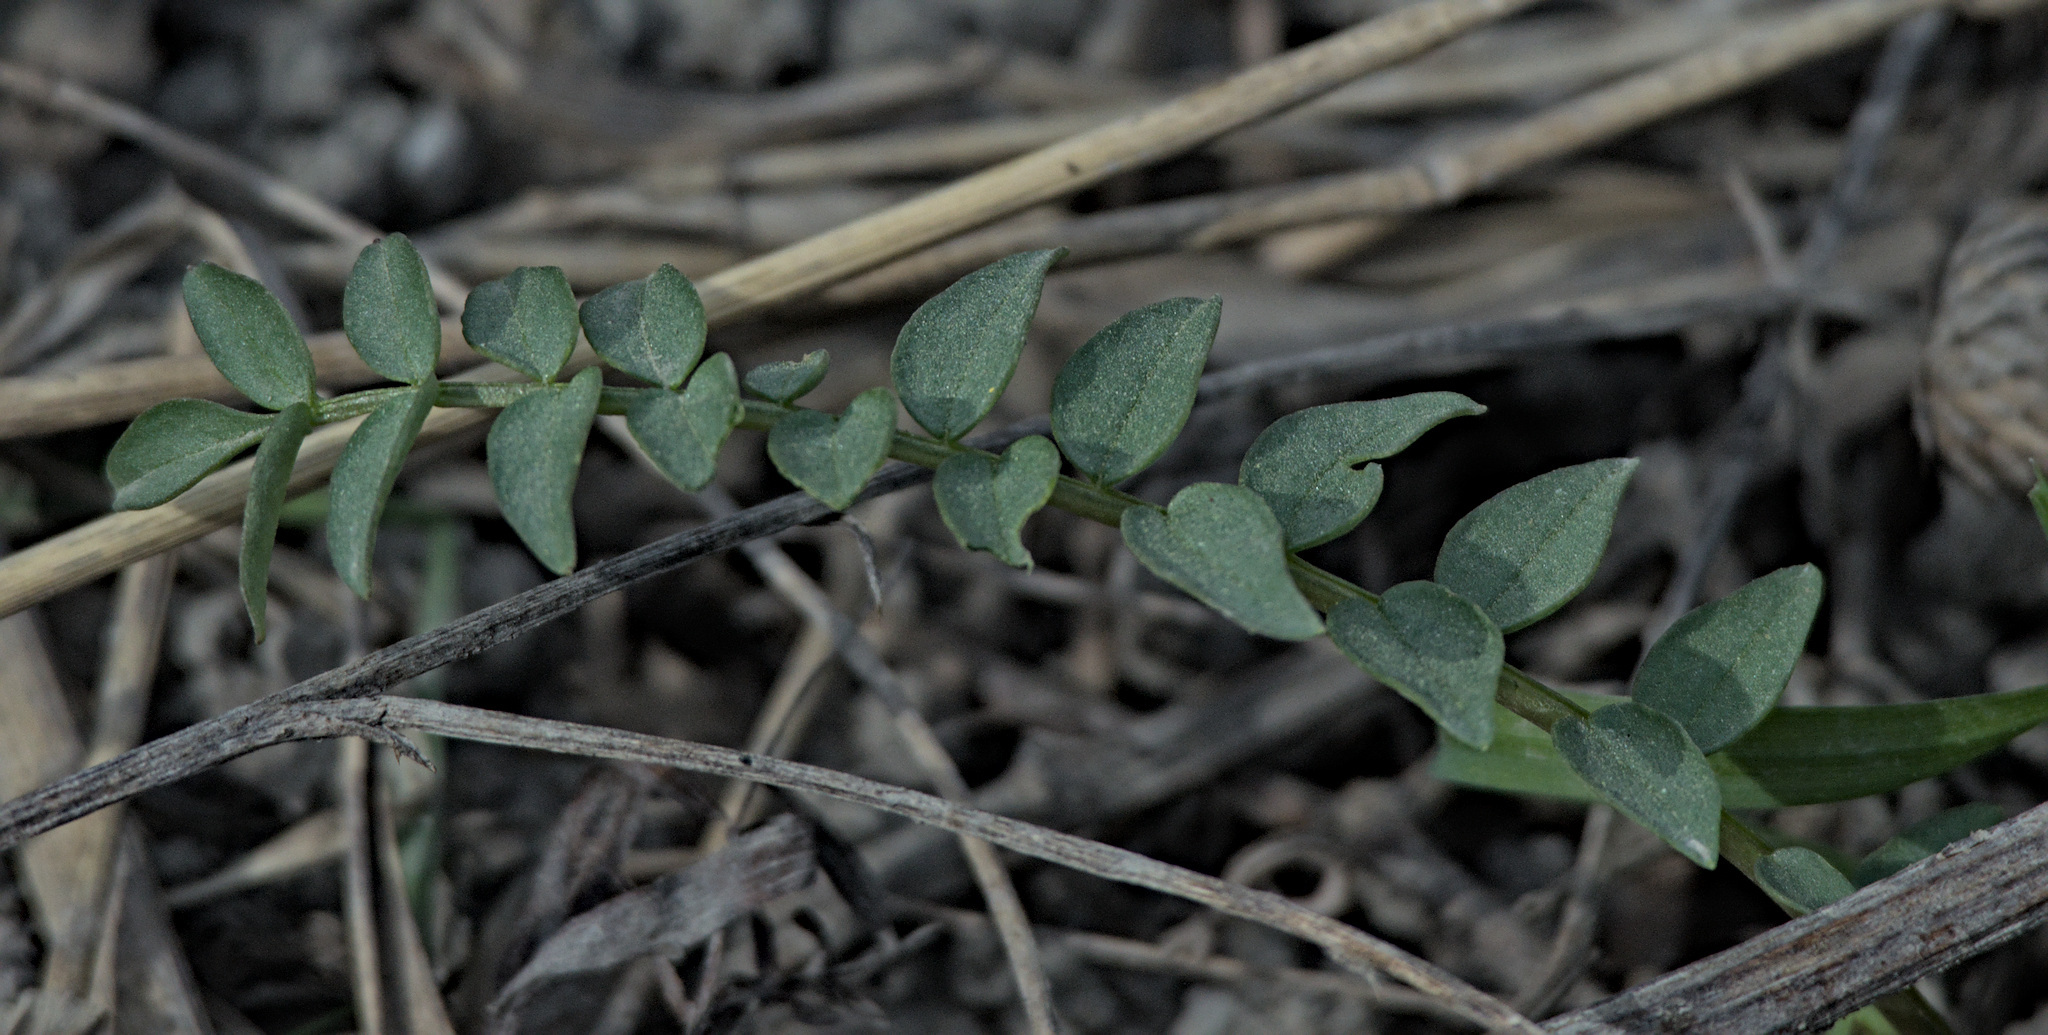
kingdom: Plantae
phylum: Tracheophyta
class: Magnoliopsida
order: Ericales
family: Polemoniaceae
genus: Polemonium
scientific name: Polemonium caeruleum
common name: Jacob's-ladder
